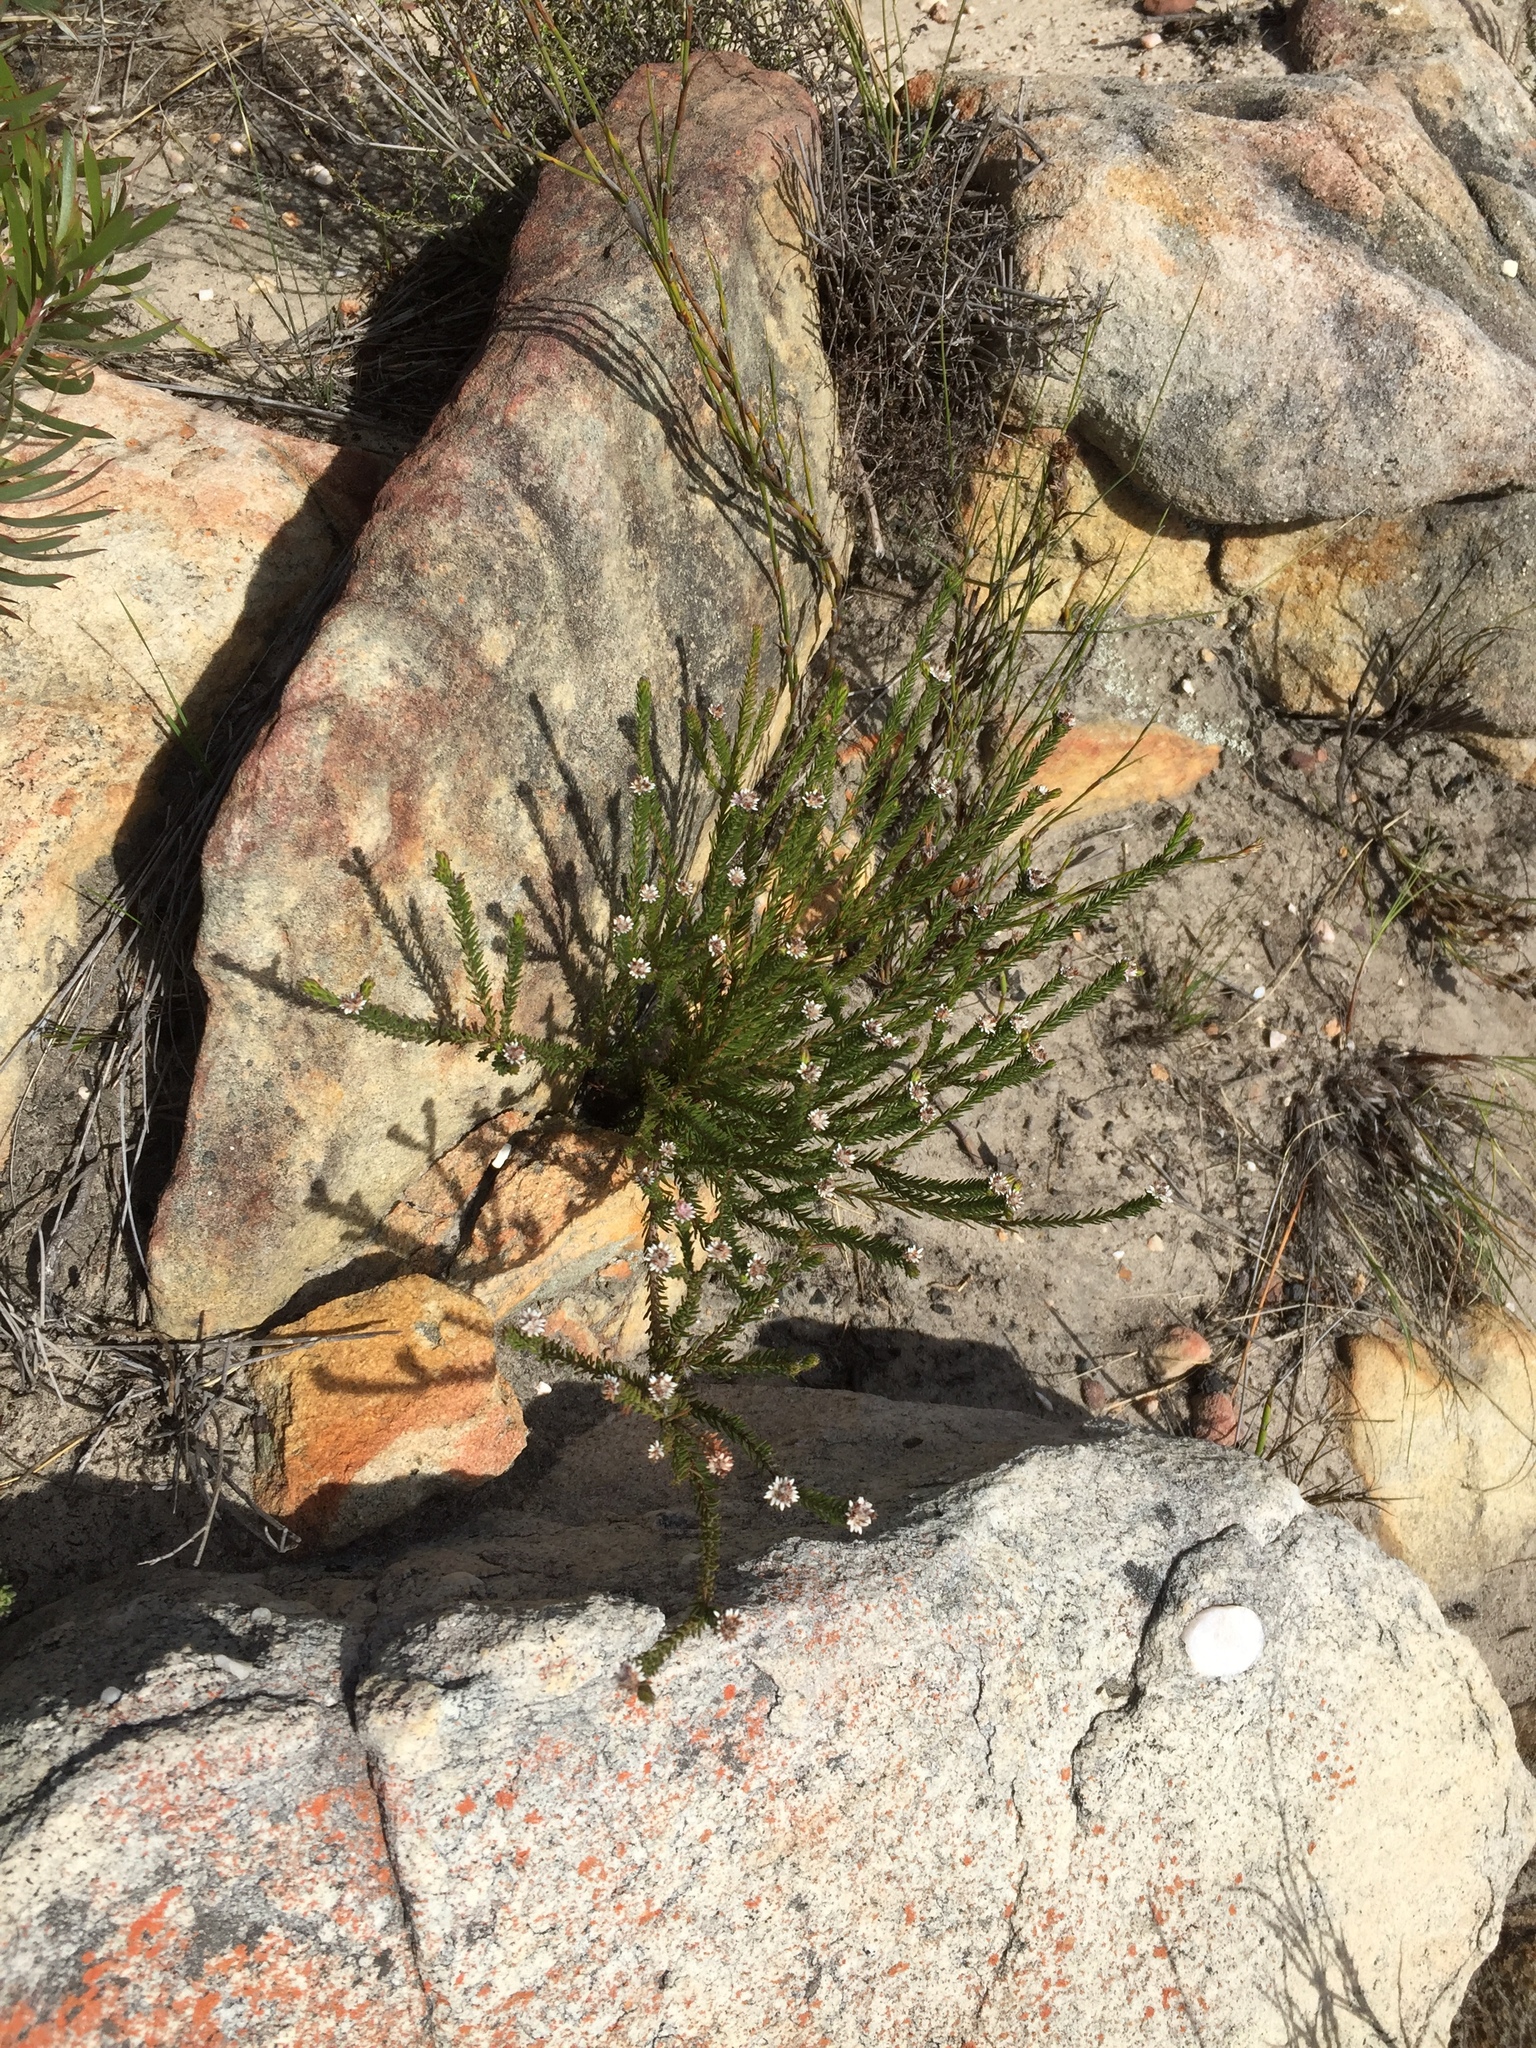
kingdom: Plantae
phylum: Tracheophyta
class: Magnoliopsida
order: Bruniales
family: Bruniaceae
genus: Staavia
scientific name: Staavia radiata
